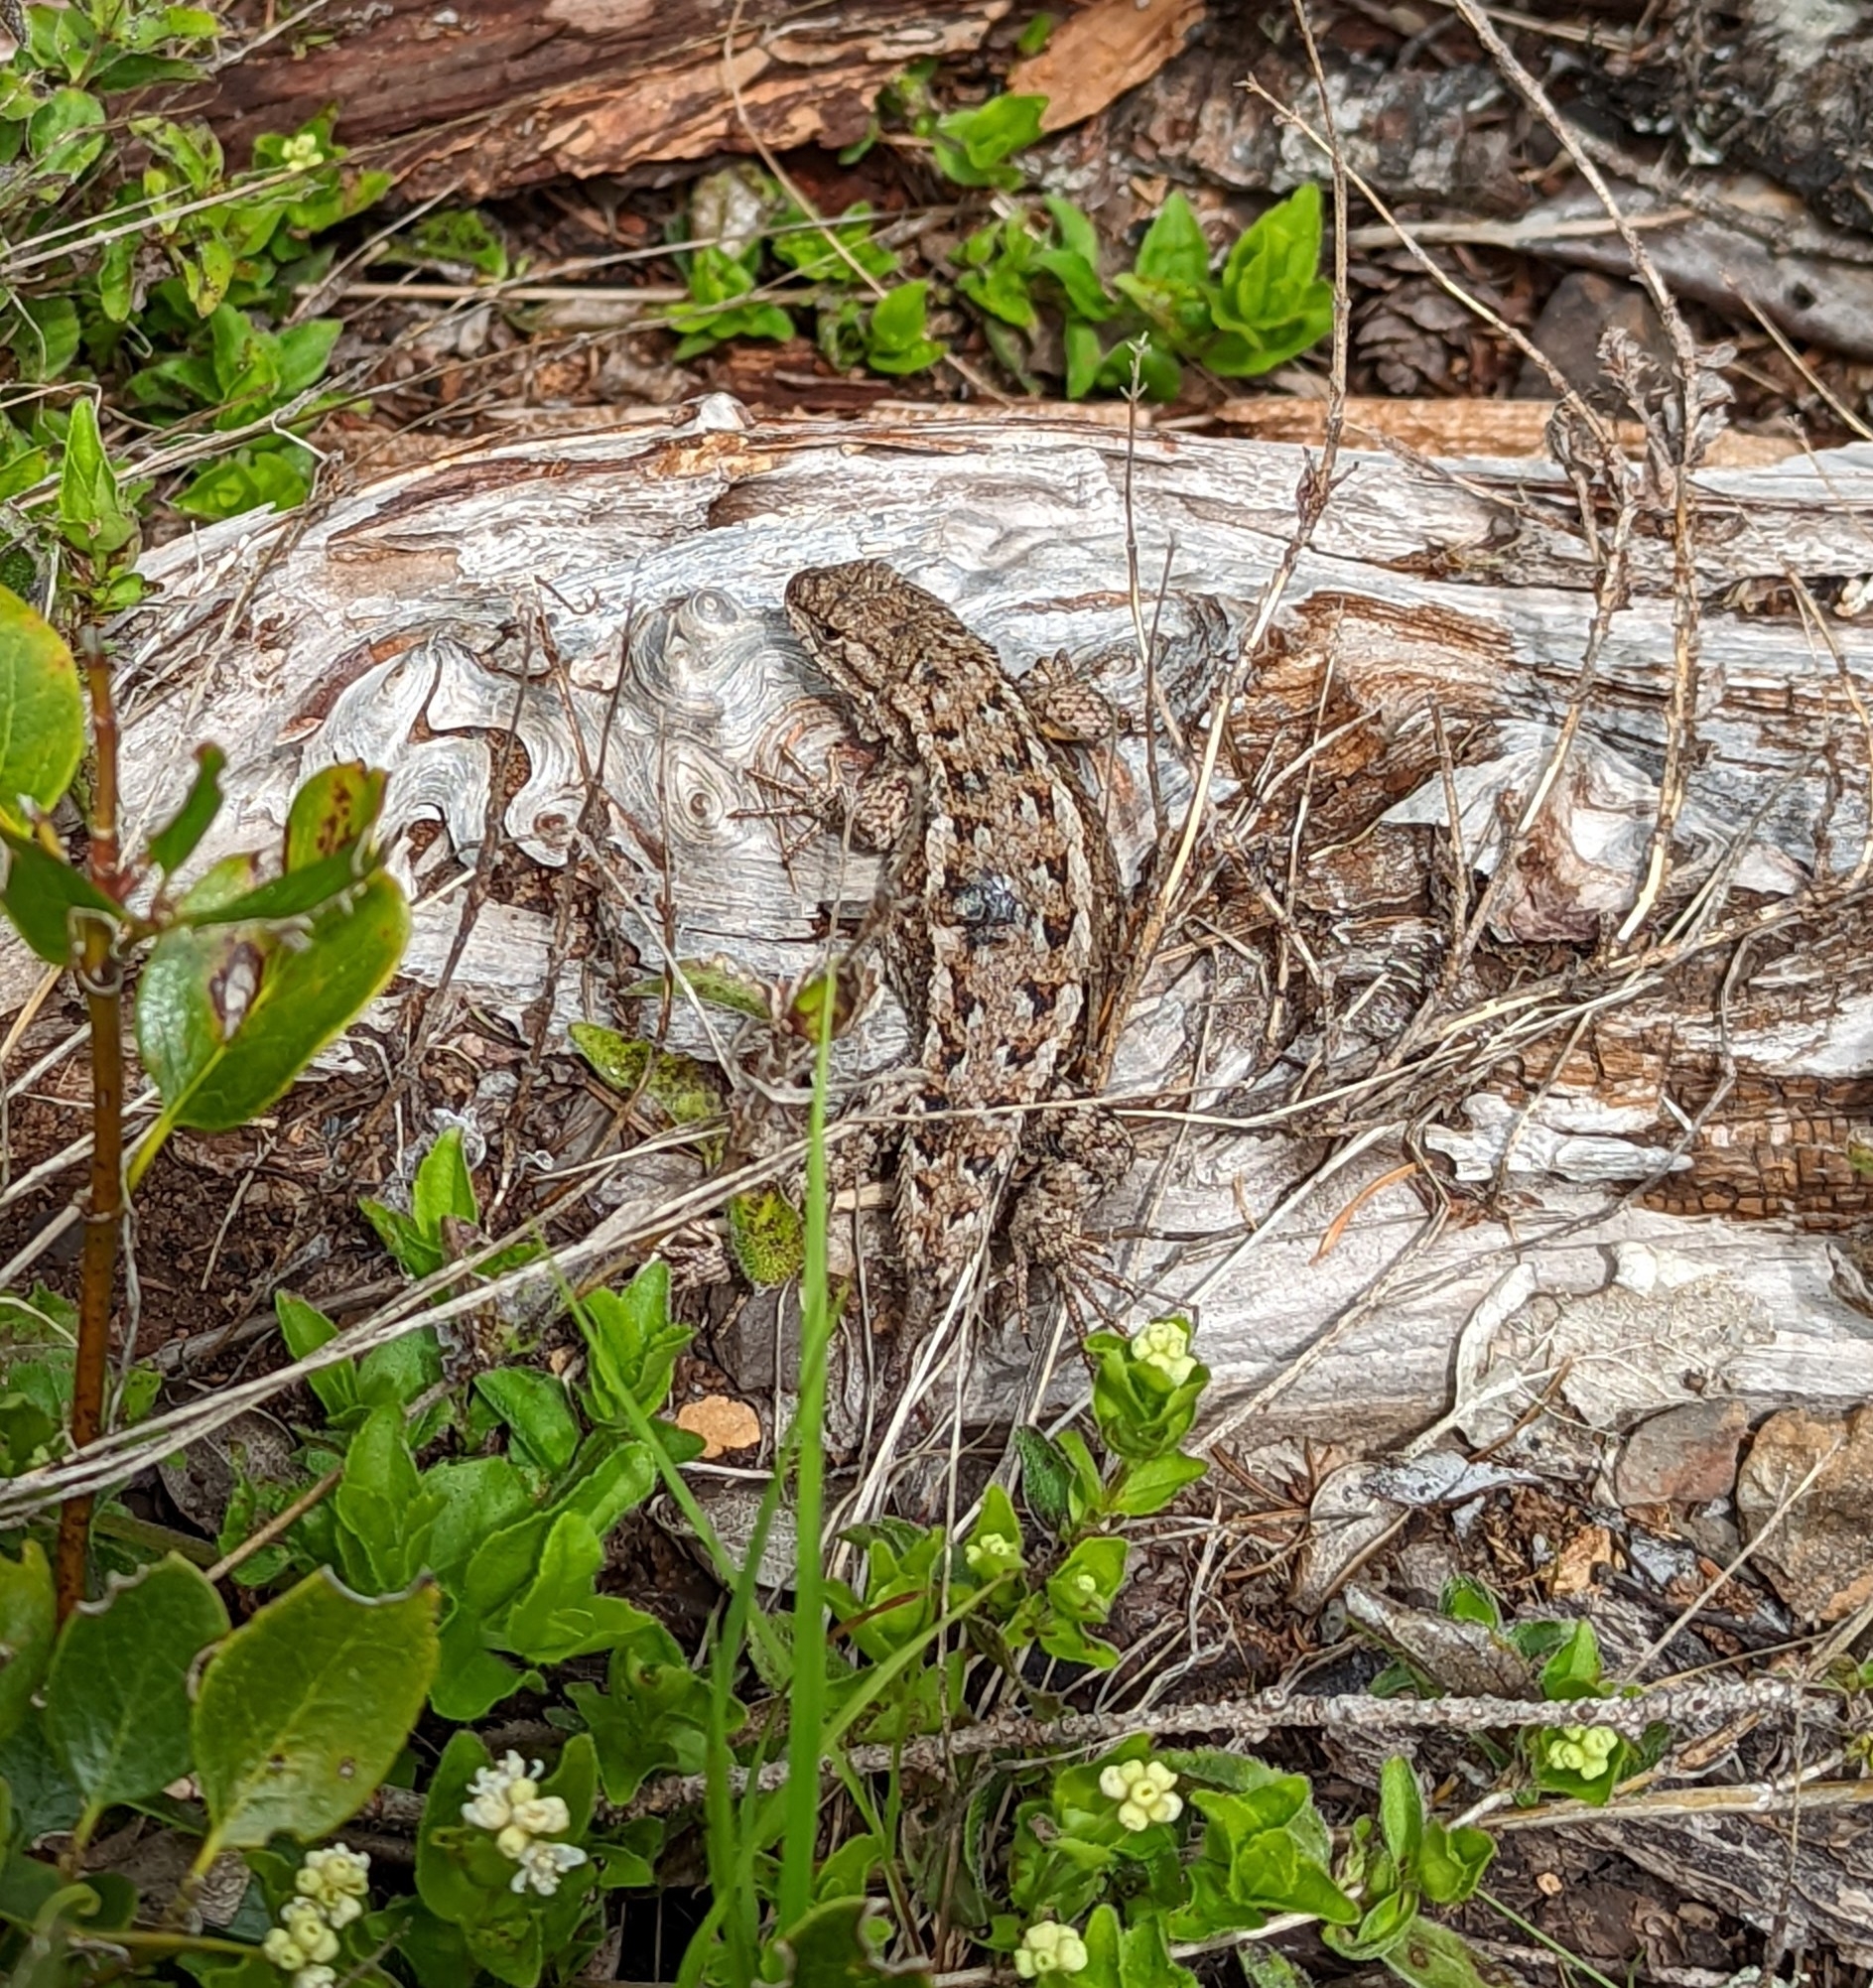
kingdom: Animalia
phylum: Chordata
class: Squamata
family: Phrynosomatidae
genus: Sceloporus
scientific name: Sceloporus occidentalis
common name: Western fence lizard
